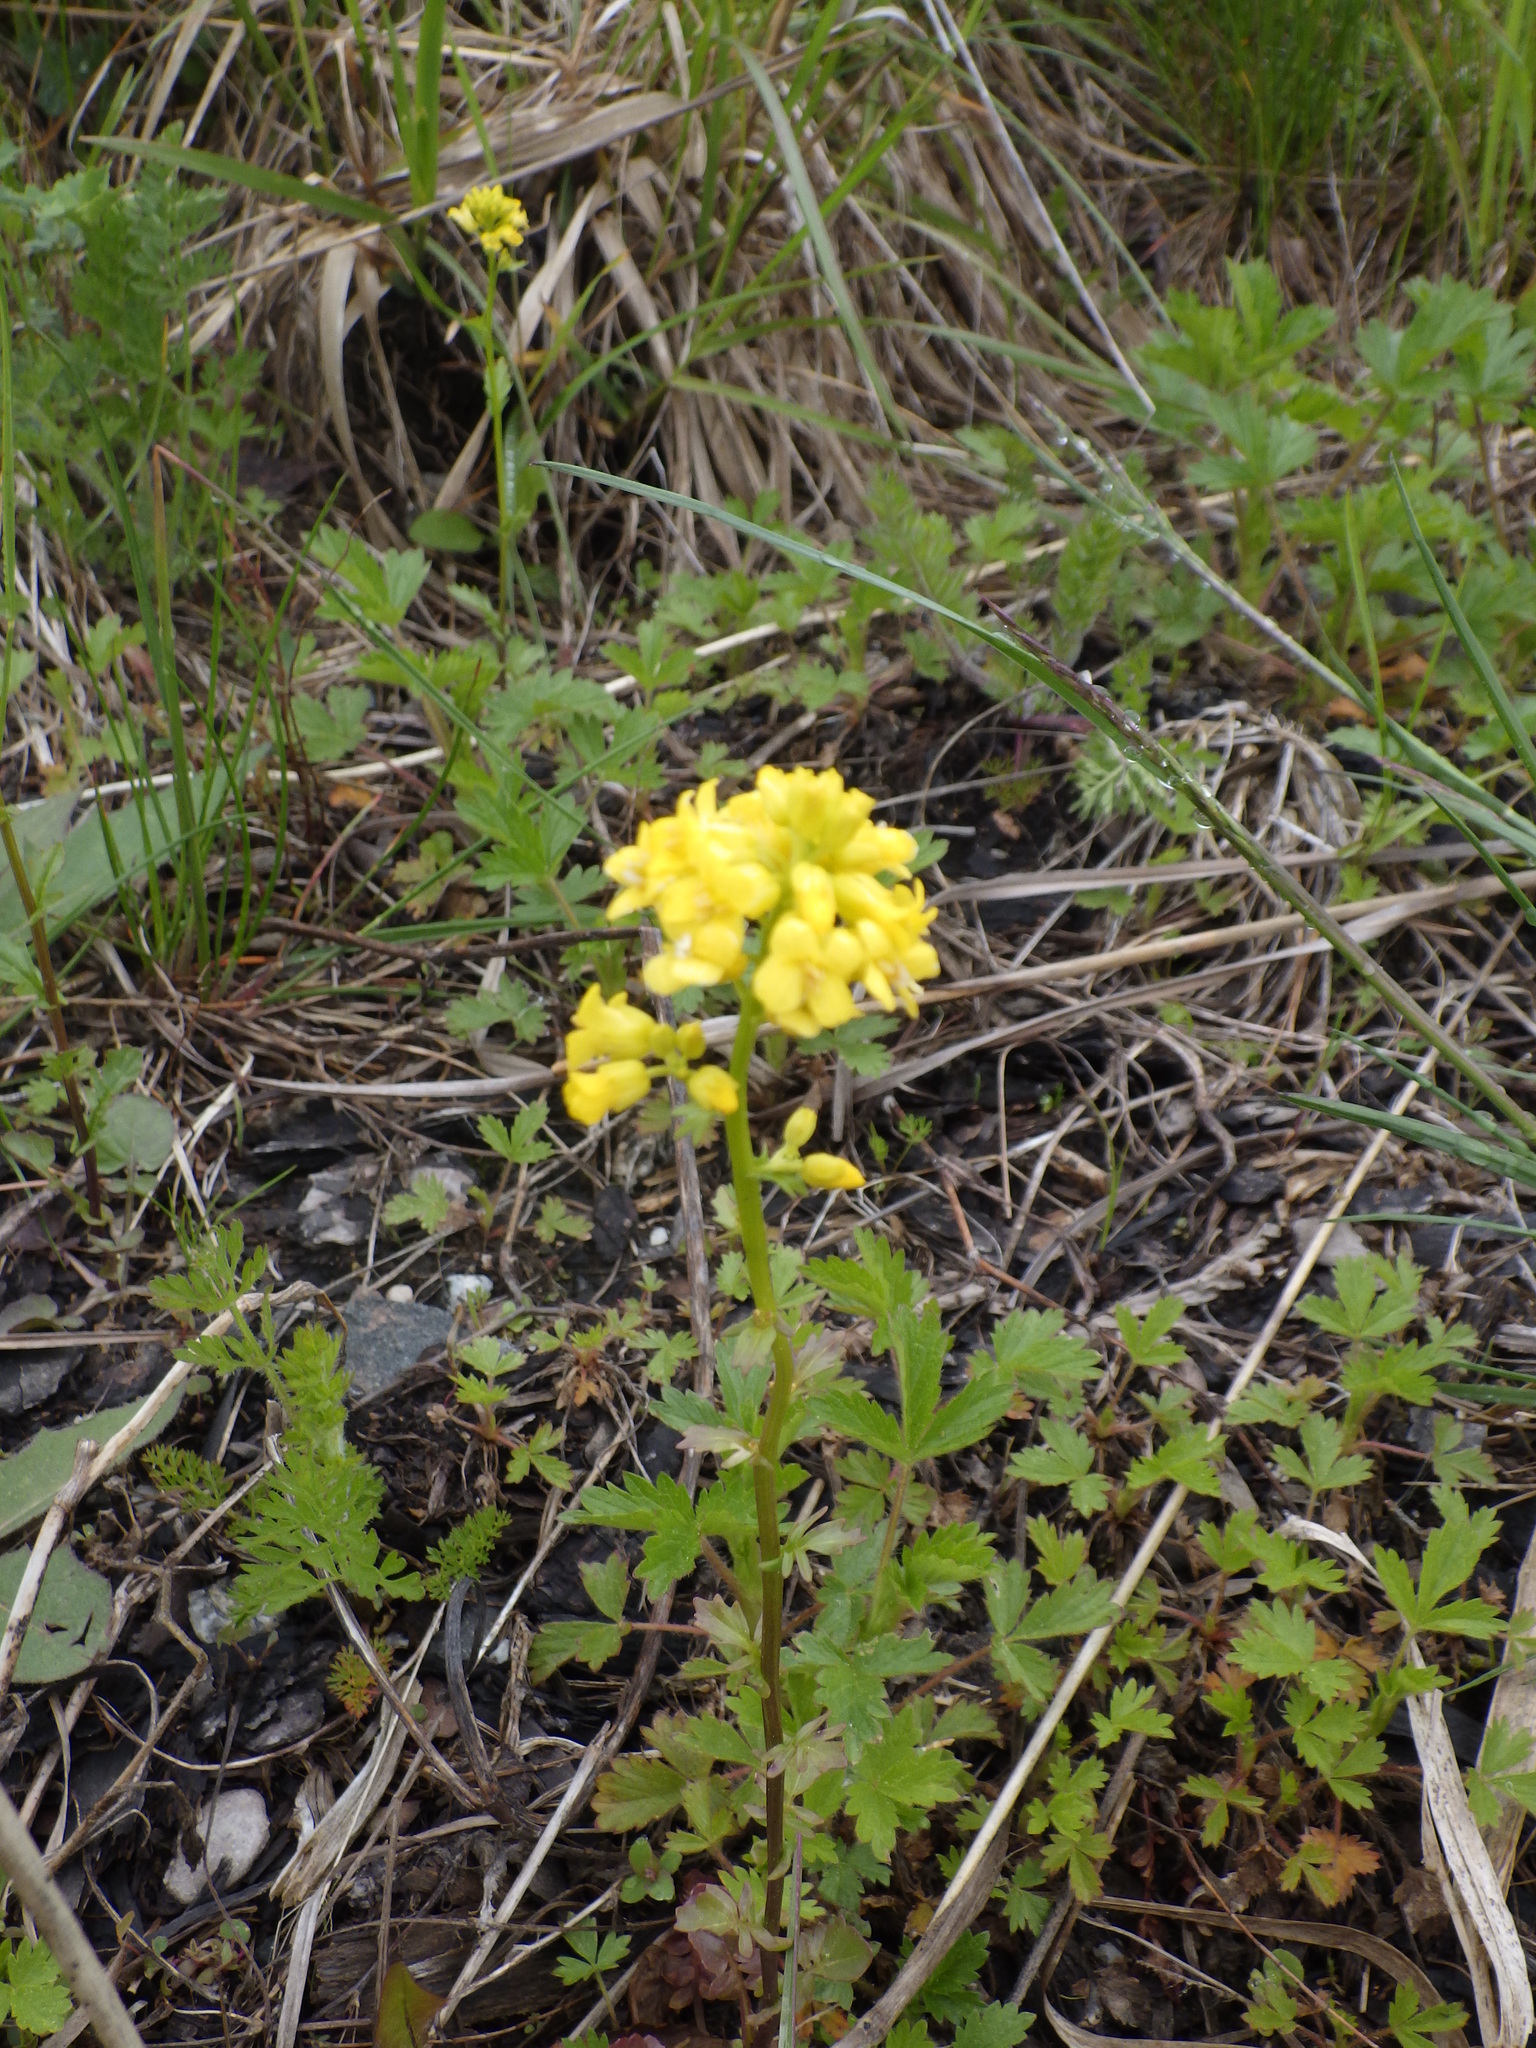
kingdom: Plantae
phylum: Tracheophyta
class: Magnoliopsida
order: Brassicales
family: Brassicaceae
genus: Barbarea
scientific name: Barbarea vulgaris
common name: Cressy-greens
